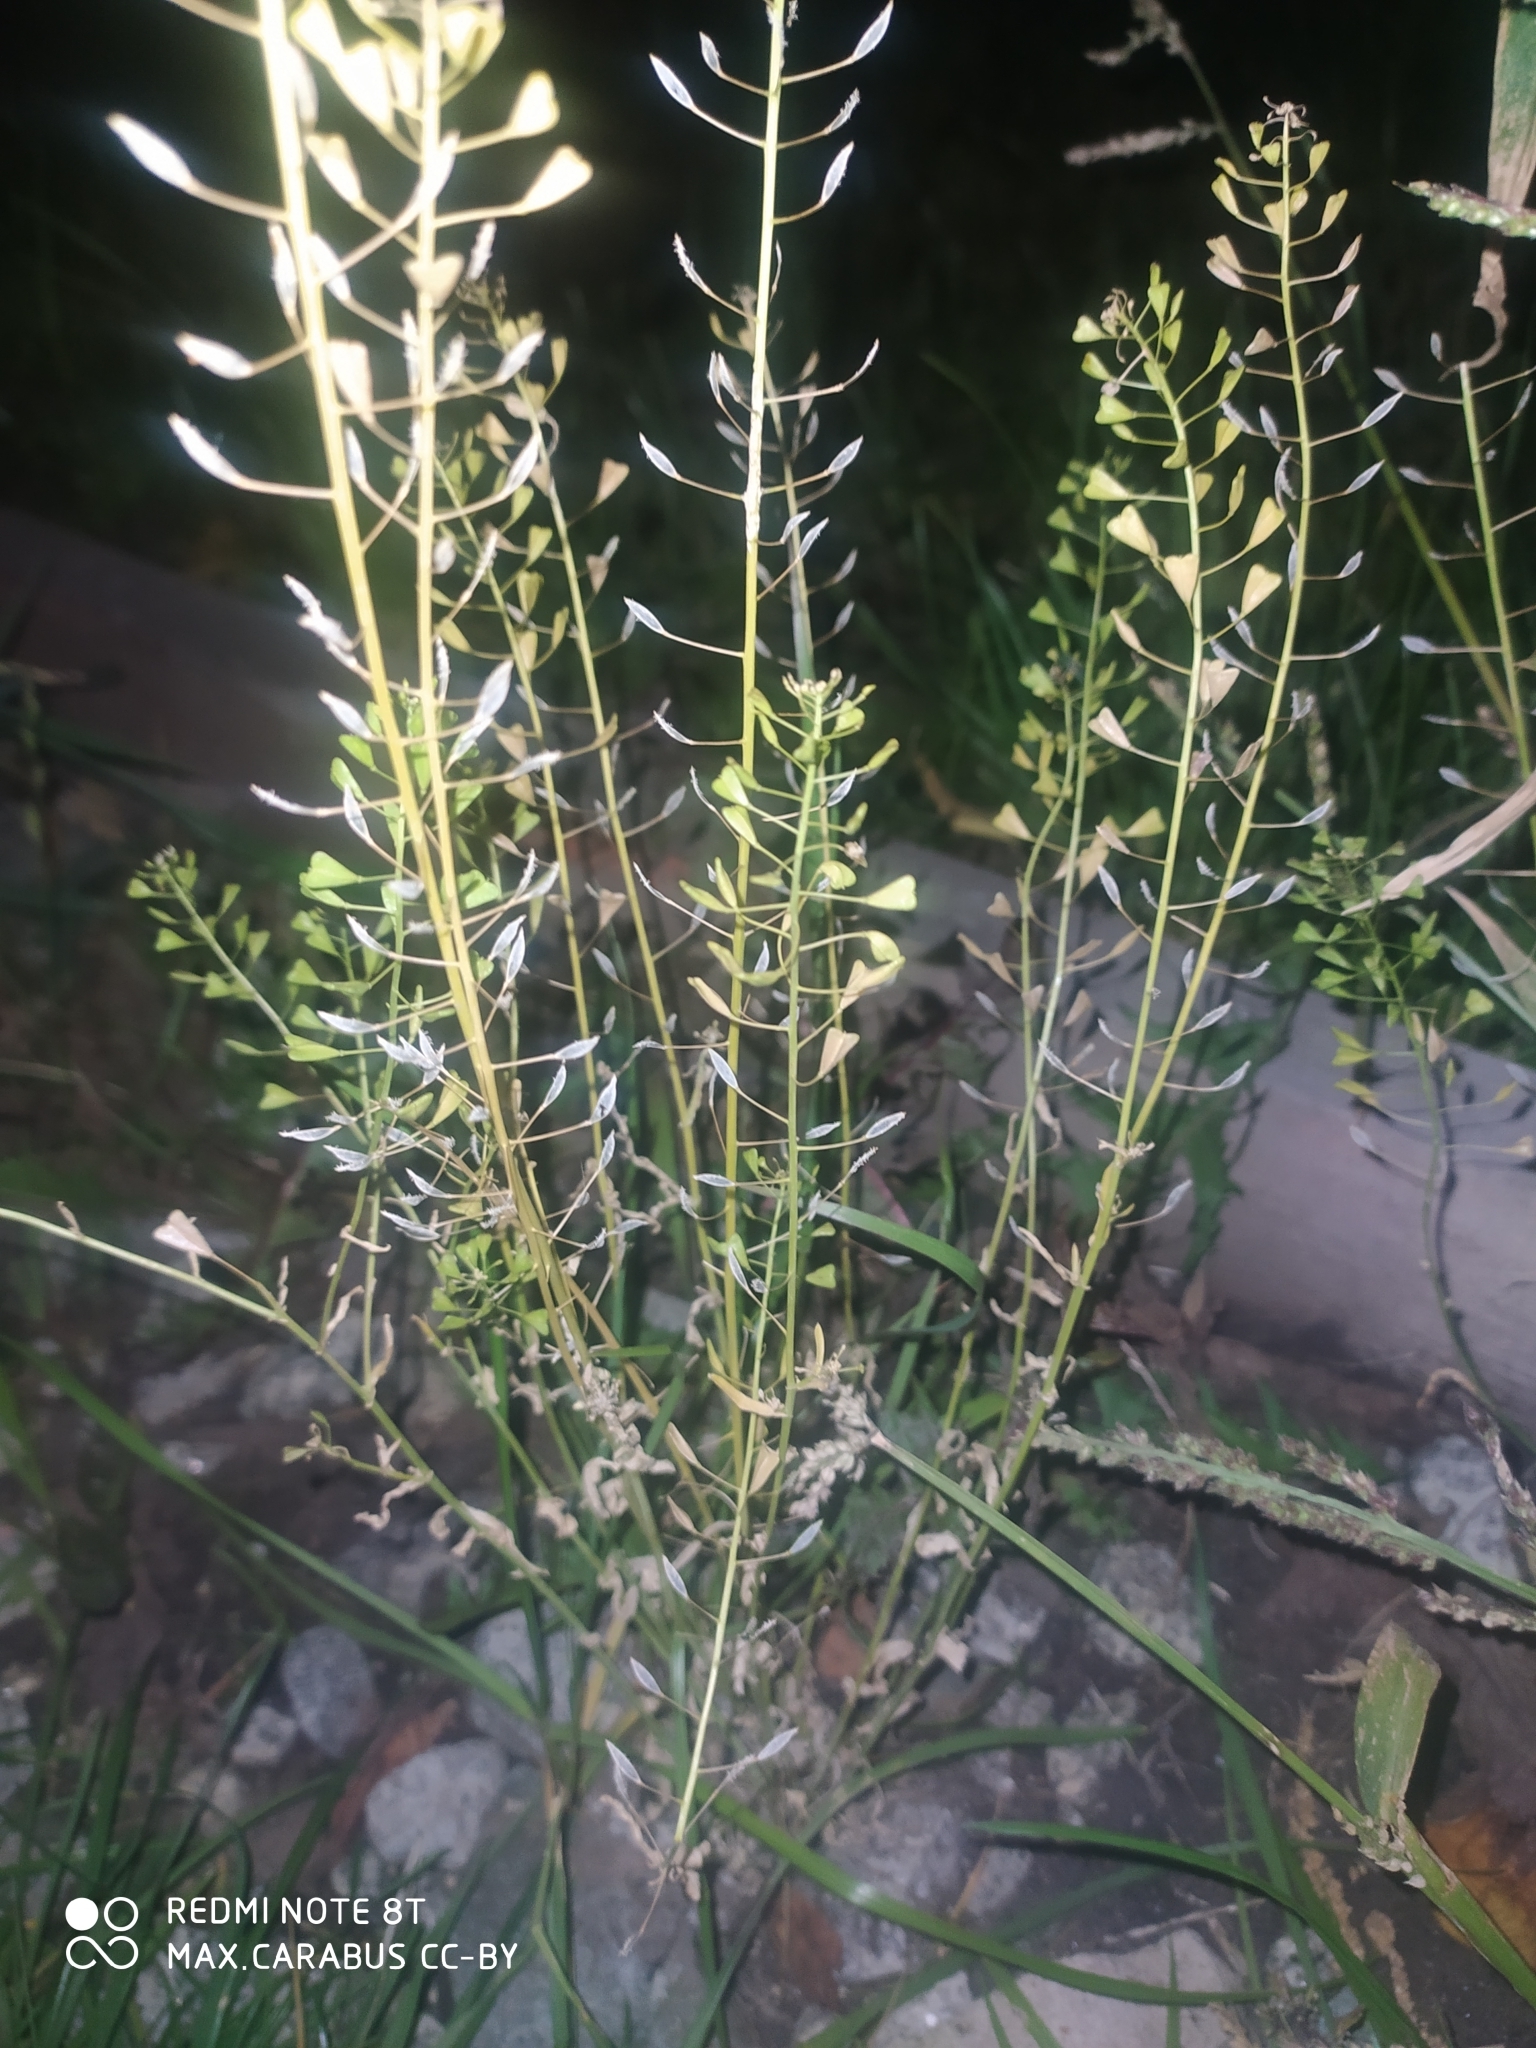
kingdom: Plantae
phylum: Tracheophyta
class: Magnoliopsida
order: Brassicales
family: Brassicaceae
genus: Capsella
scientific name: Capsella bursa-pastoris
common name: Shepherd's purse
